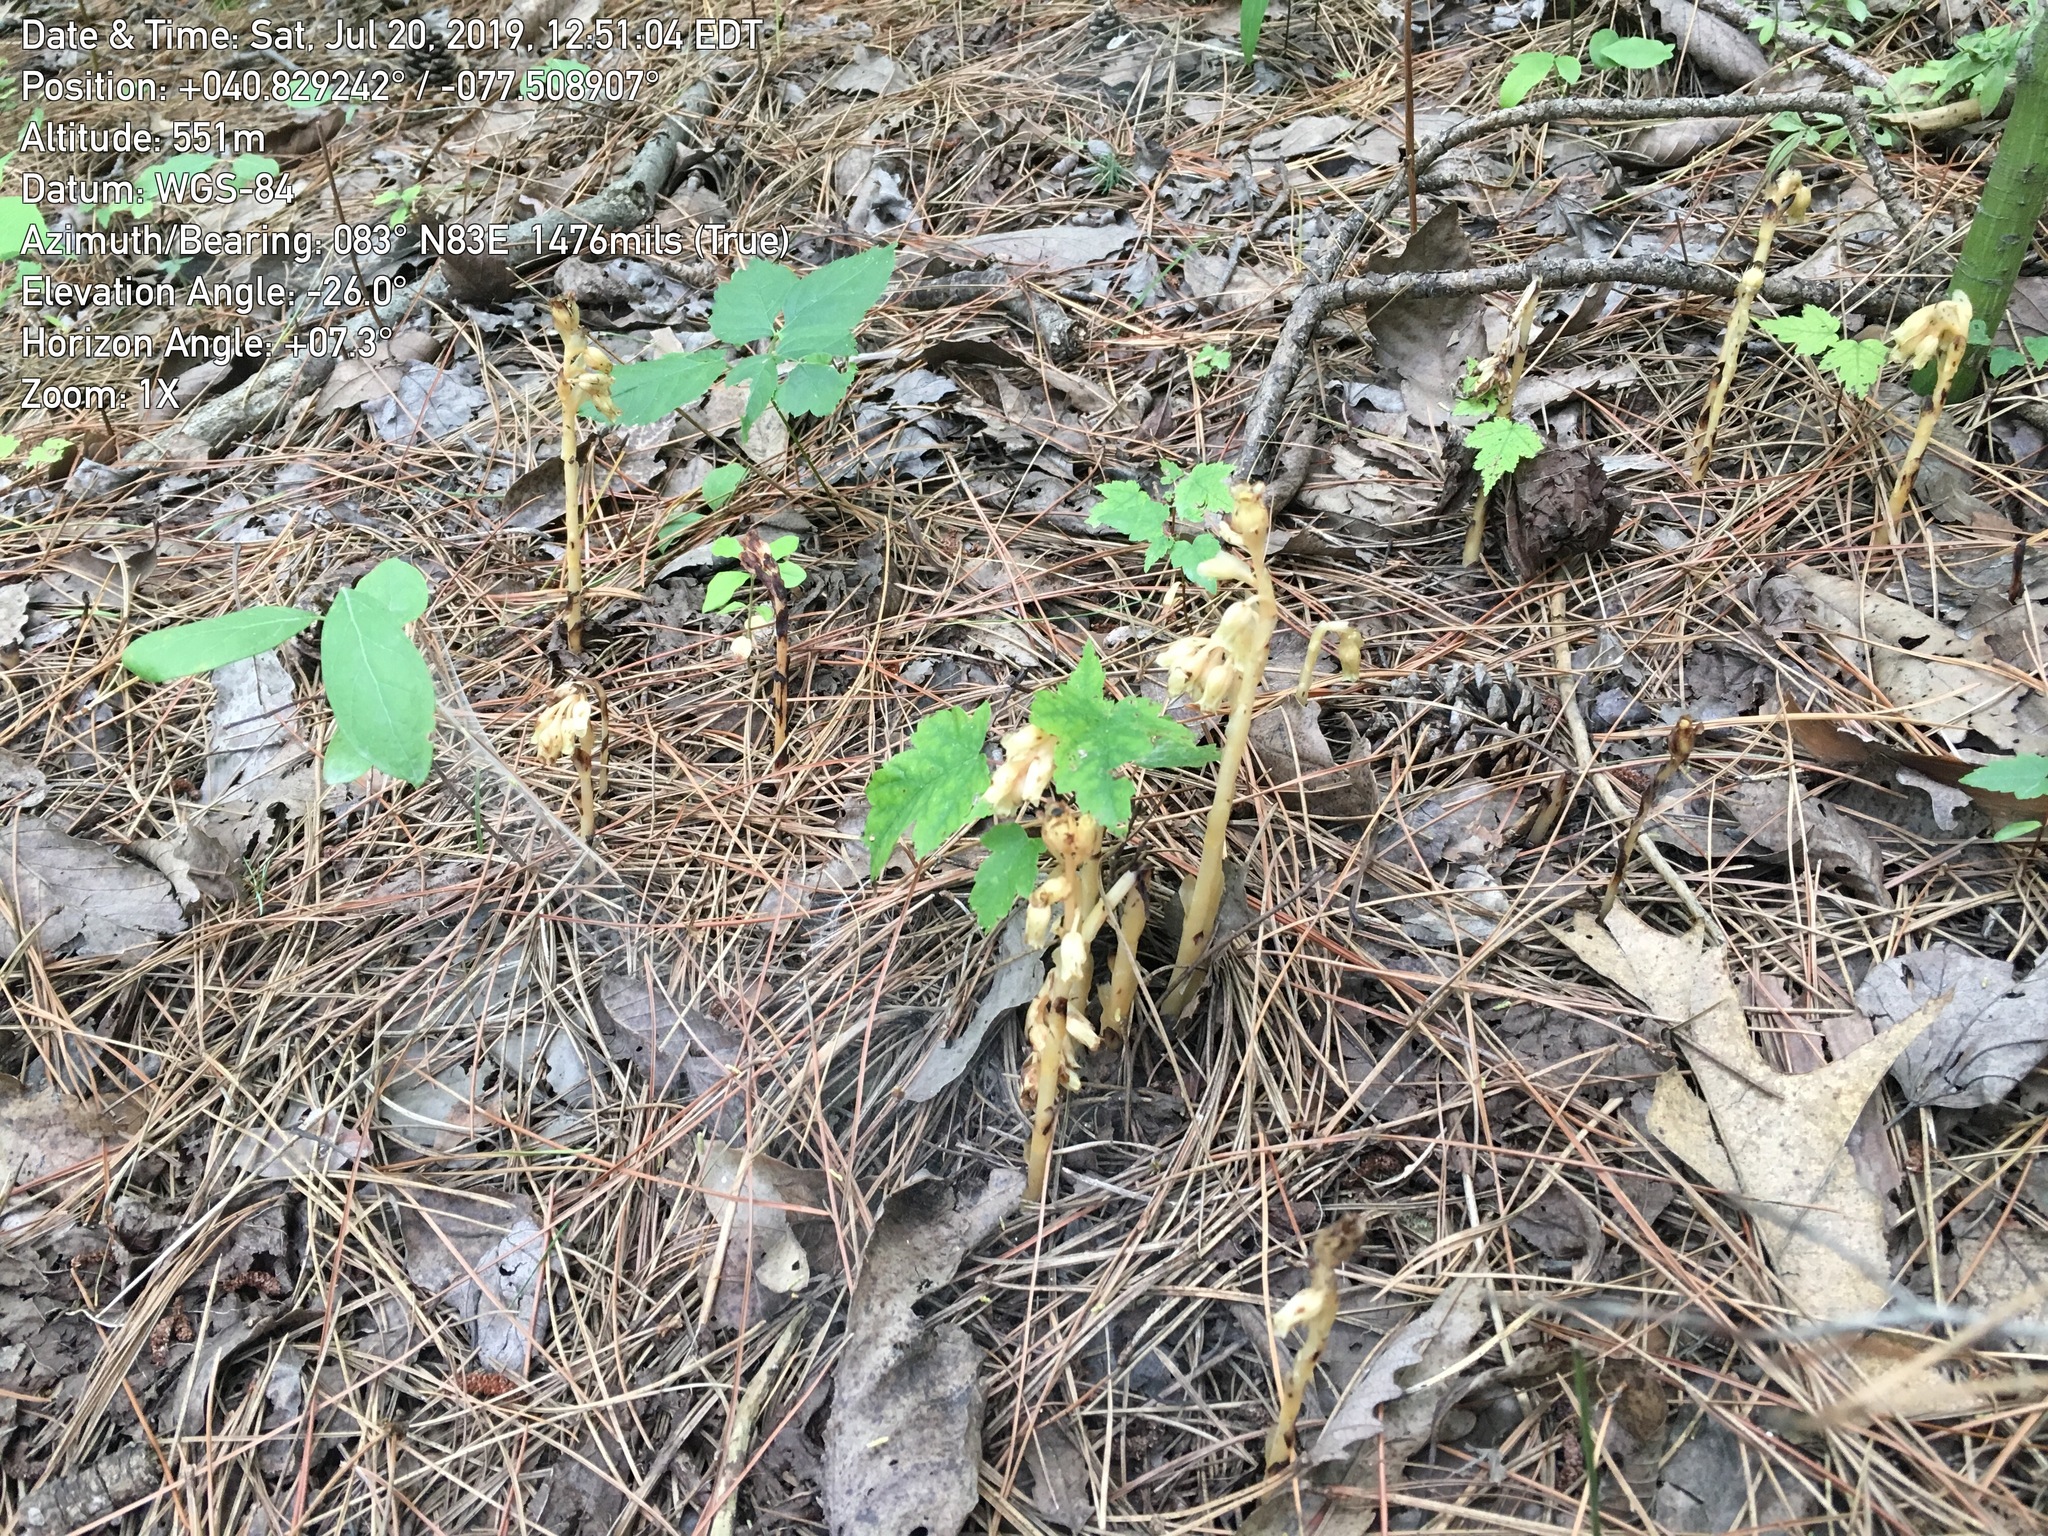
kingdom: Plantae
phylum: Tracheophyta
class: Magnoliopsida
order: Ericales
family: Ericaceae
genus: Hypopitys
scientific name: Hypopitys monotropa
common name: Yellow bird's-nest
